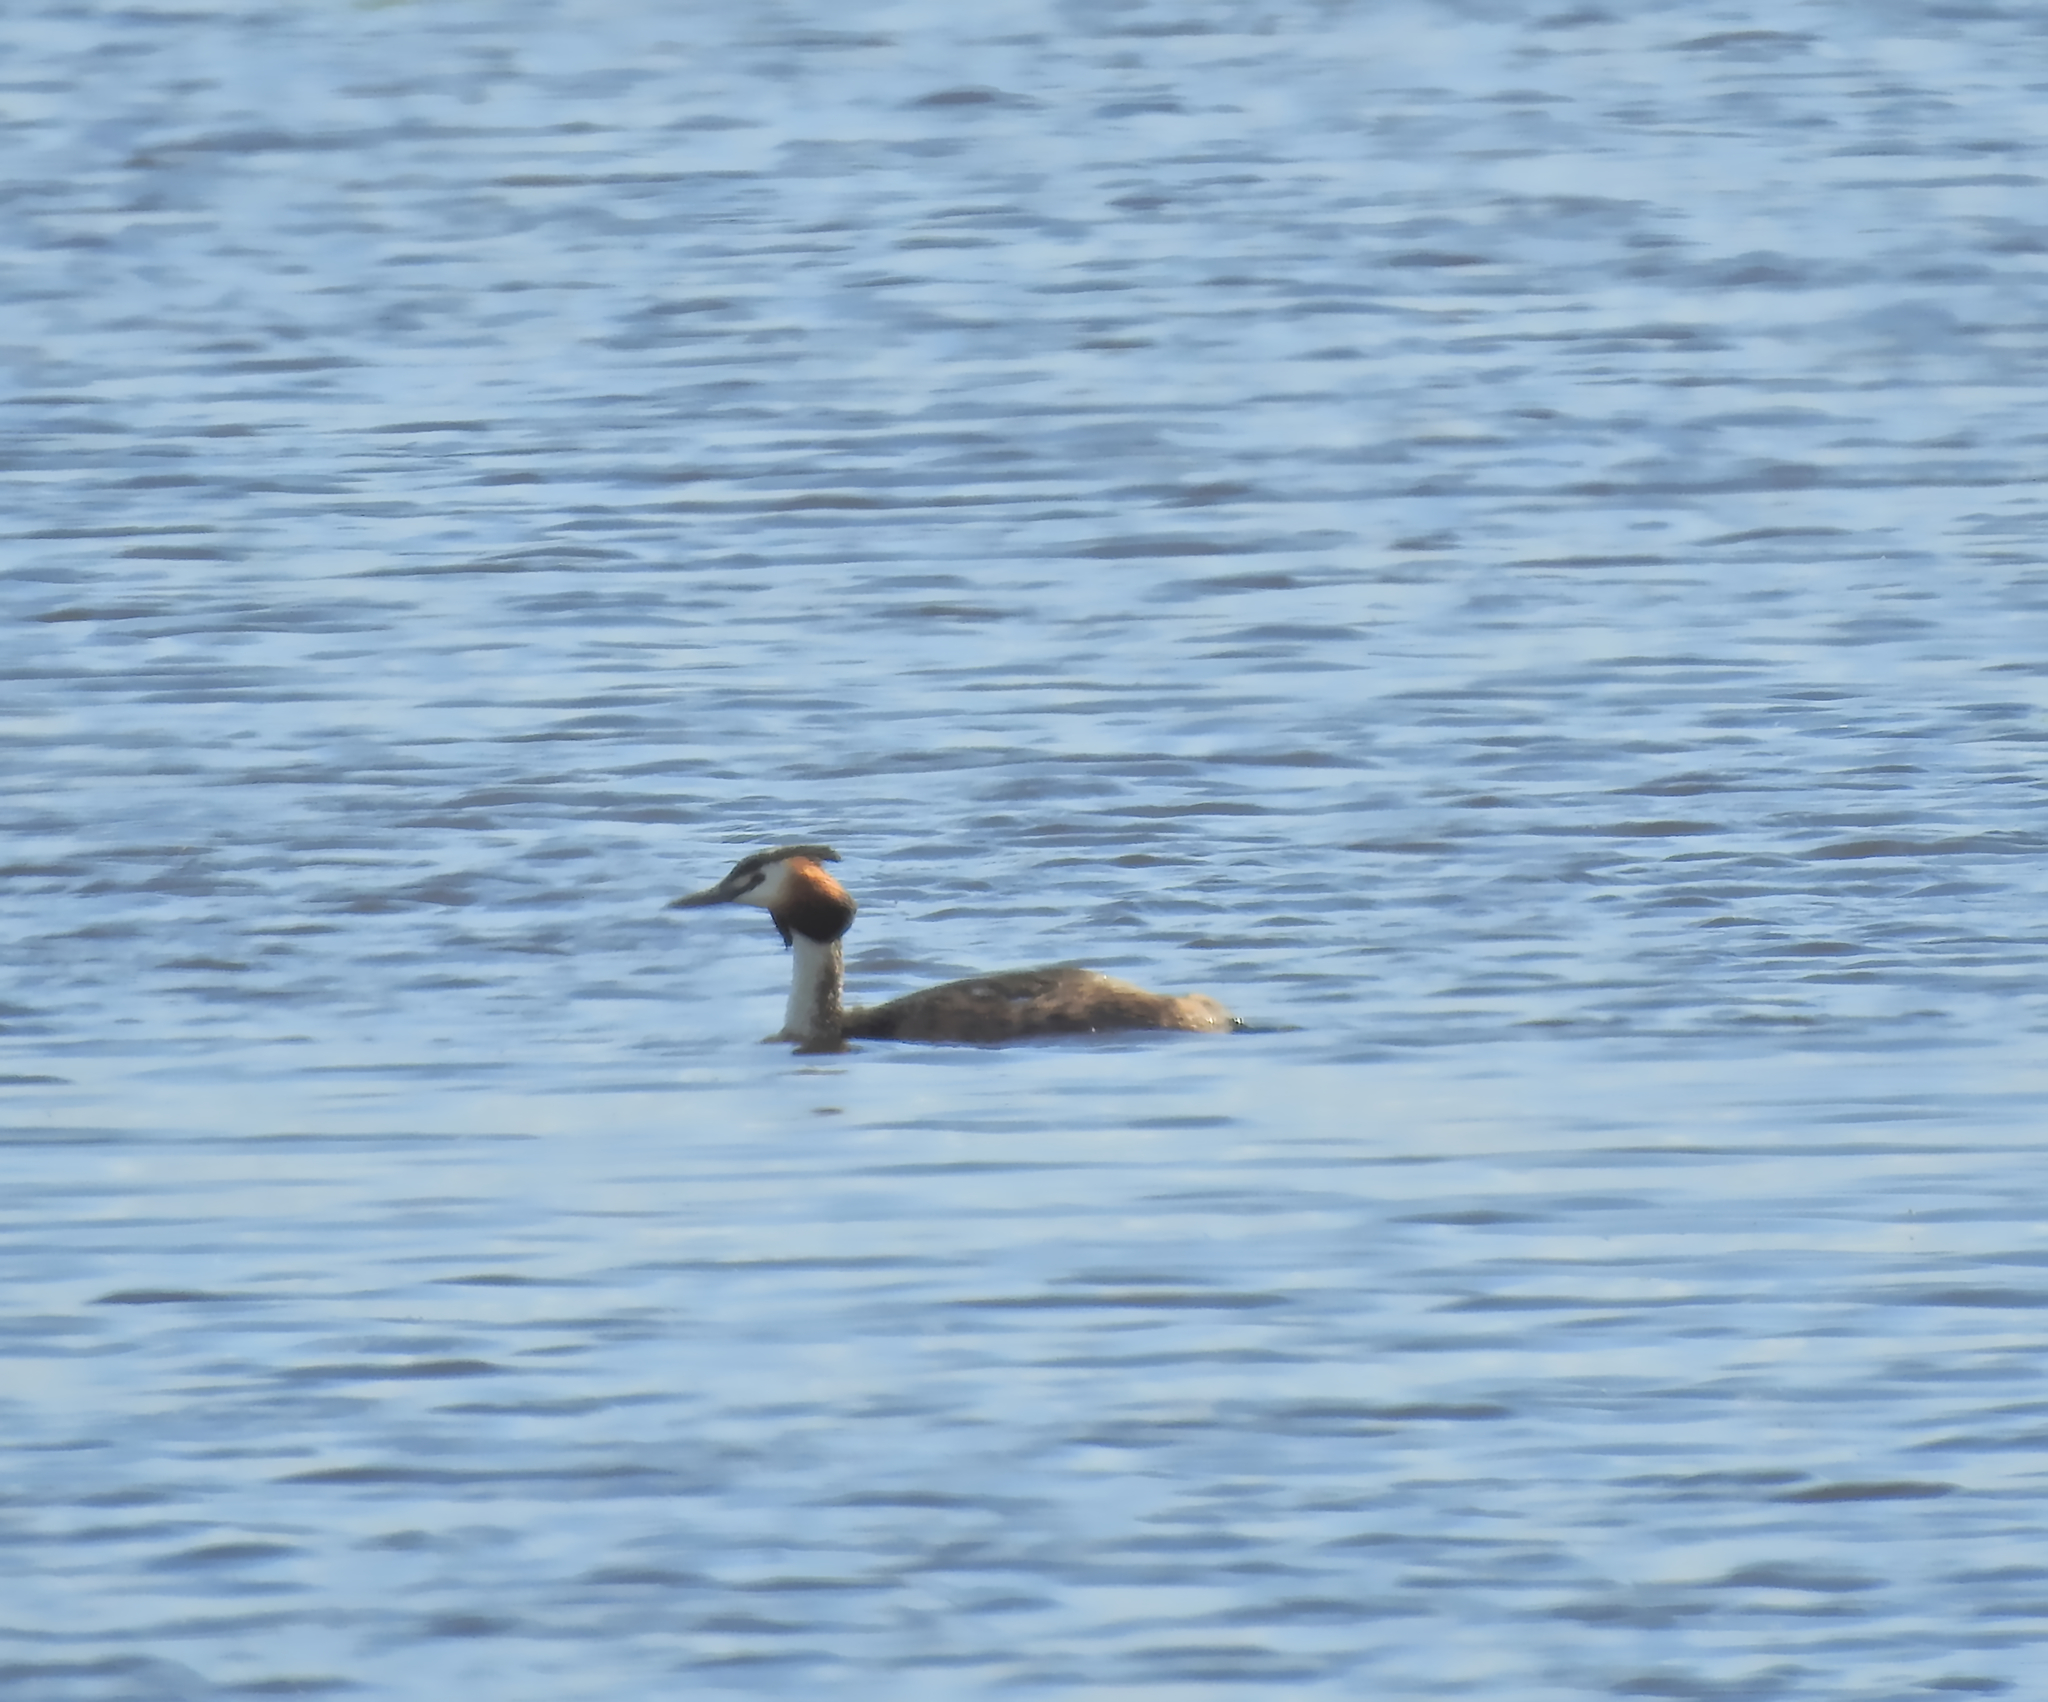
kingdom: Animalia
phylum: Chordata
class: Aves
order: Podicipediformes
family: Podicipedidae
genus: Podiceps
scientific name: Podiceps cristatus
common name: Great crested grebe
